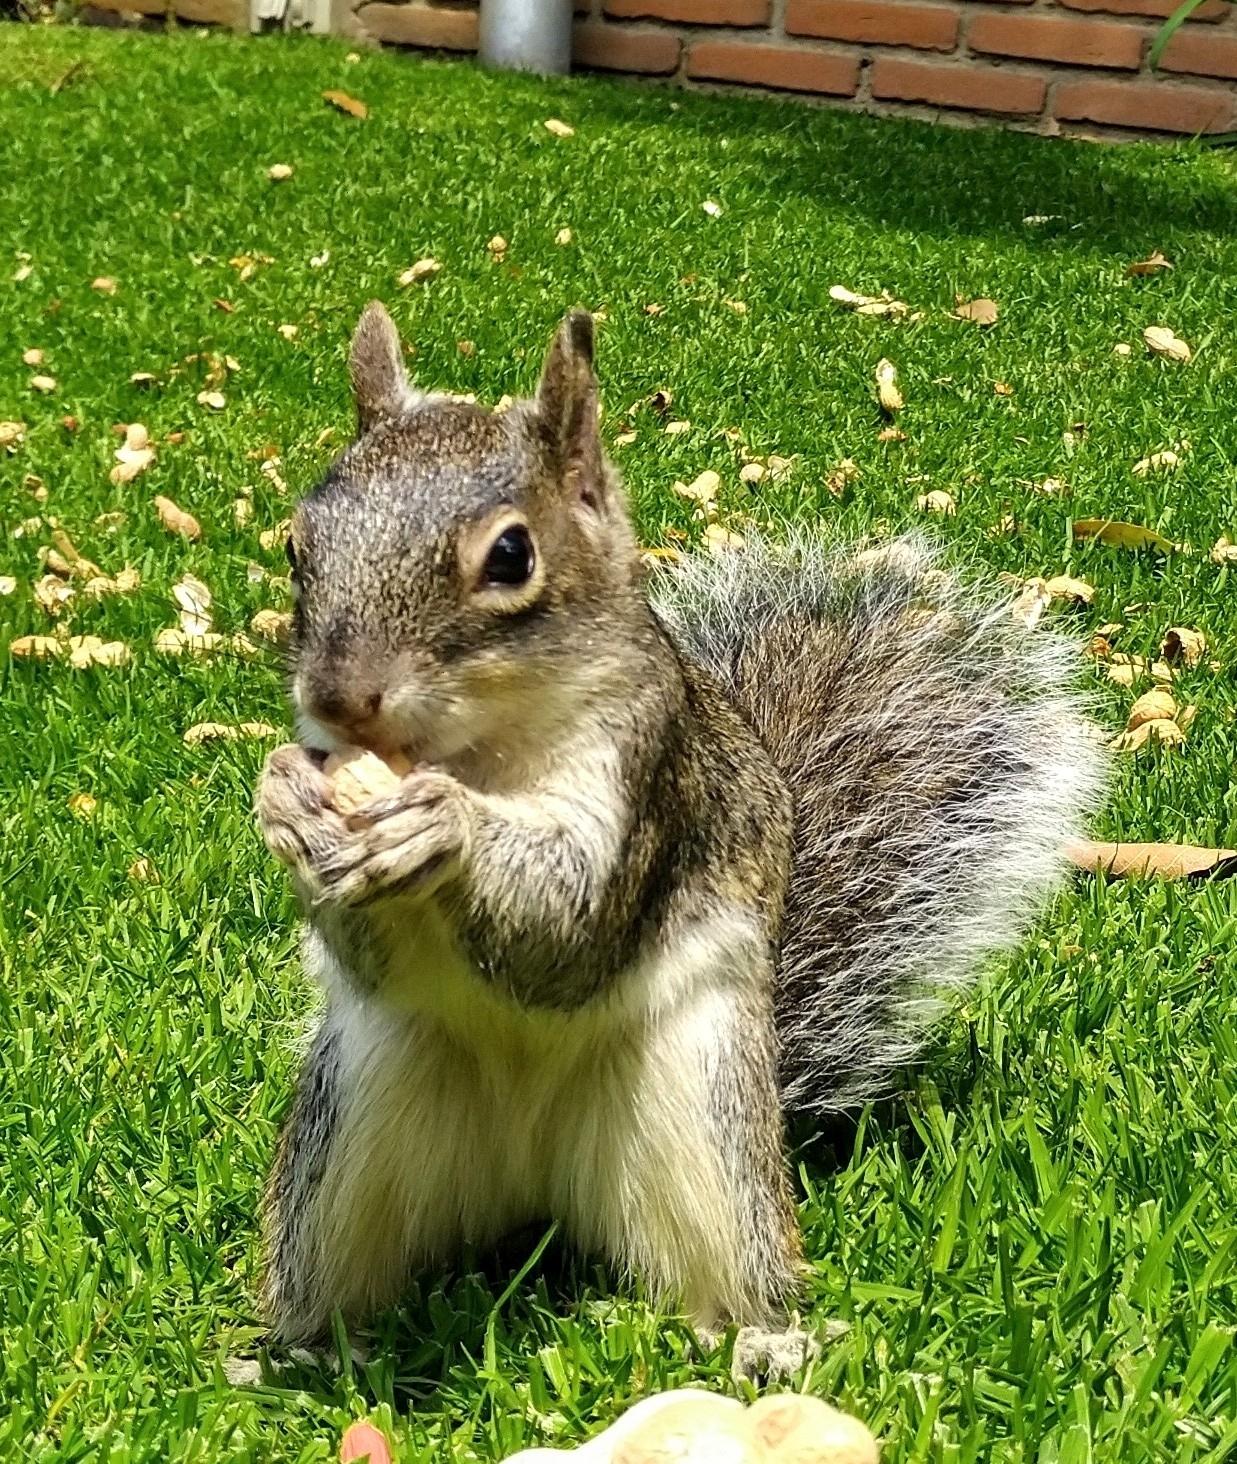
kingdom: Animalia
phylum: Chordata
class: Mammalia
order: Rodentia
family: Sciuridae
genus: Sciurus
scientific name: Sciurus oculatus
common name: Peters's squirrel
